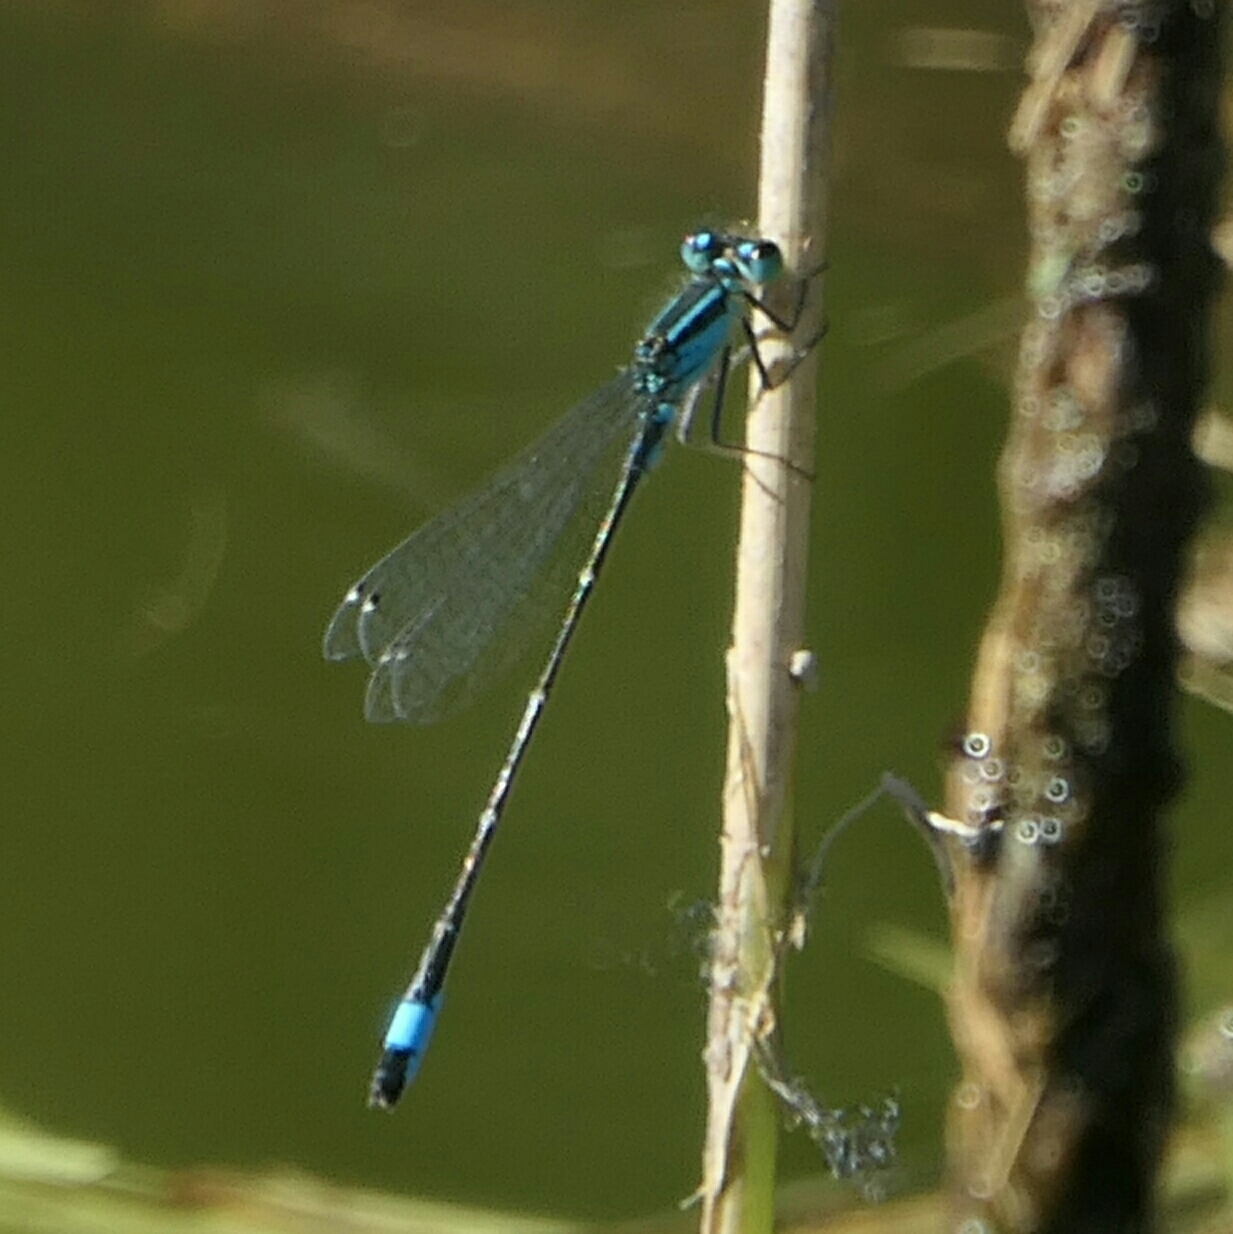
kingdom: Animalia
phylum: Arthropoda
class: Insecta
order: Odonata
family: Coenagrionidae
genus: Ischnura
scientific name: Ischnura elegans
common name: Blue-tailed damselfly
